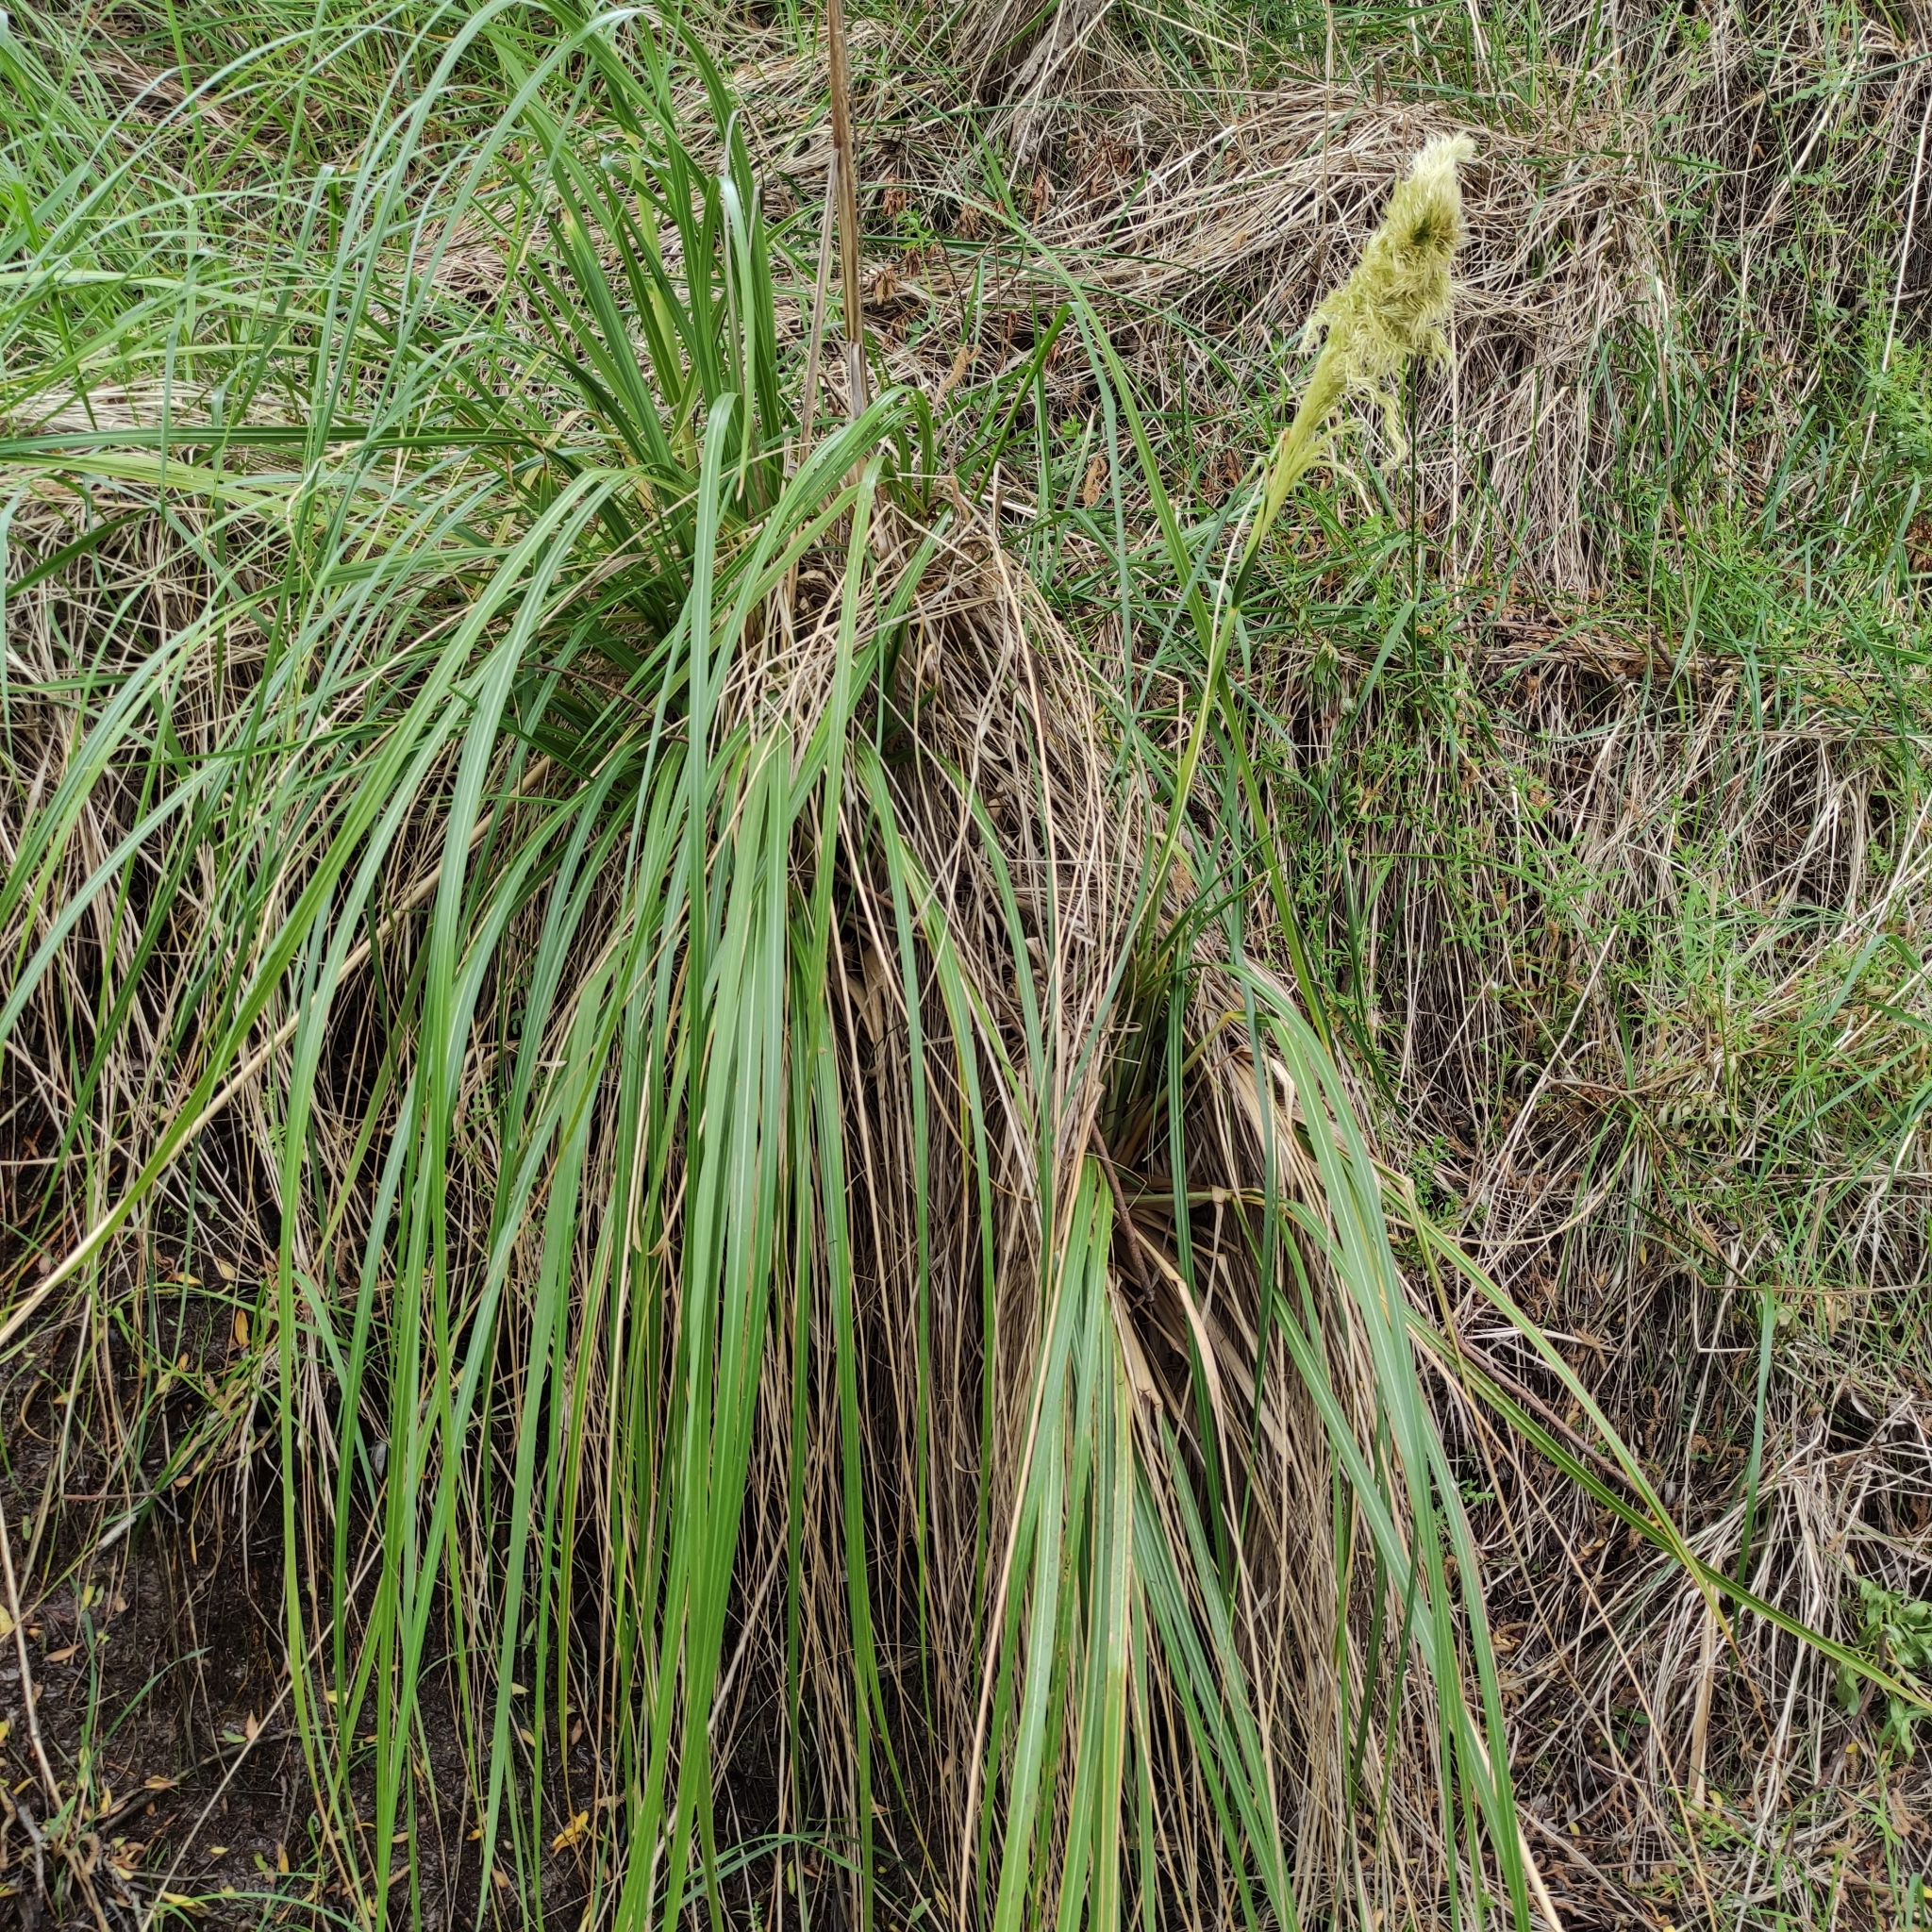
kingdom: Plantae
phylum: Tracheophyta
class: Liliopsida
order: Poales
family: Poaceae
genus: Austroderia
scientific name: Austroderia richardii
